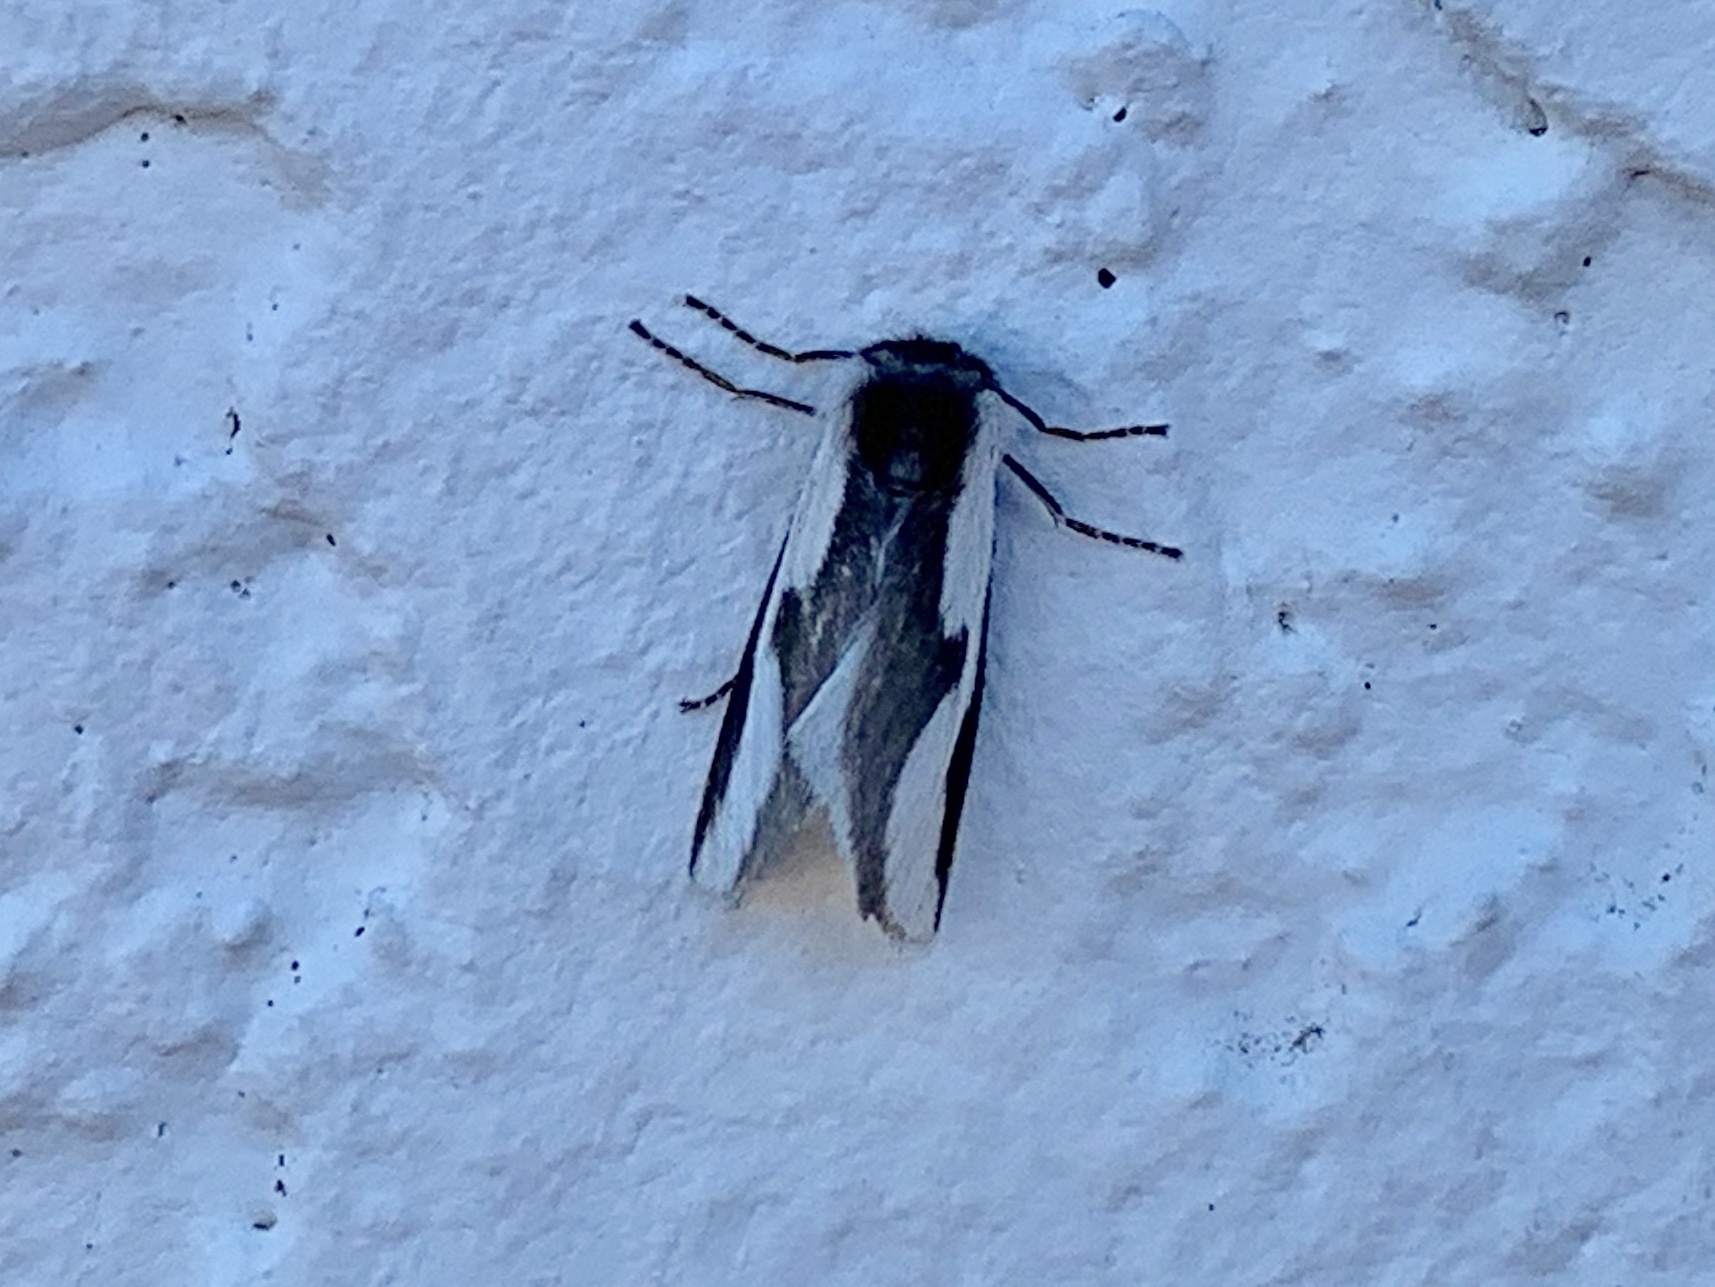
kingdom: Animalia
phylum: Arthropoda
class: Insecta
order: Lepidoptera
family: Megalopygidae
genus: Norape
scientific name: Norape tener
